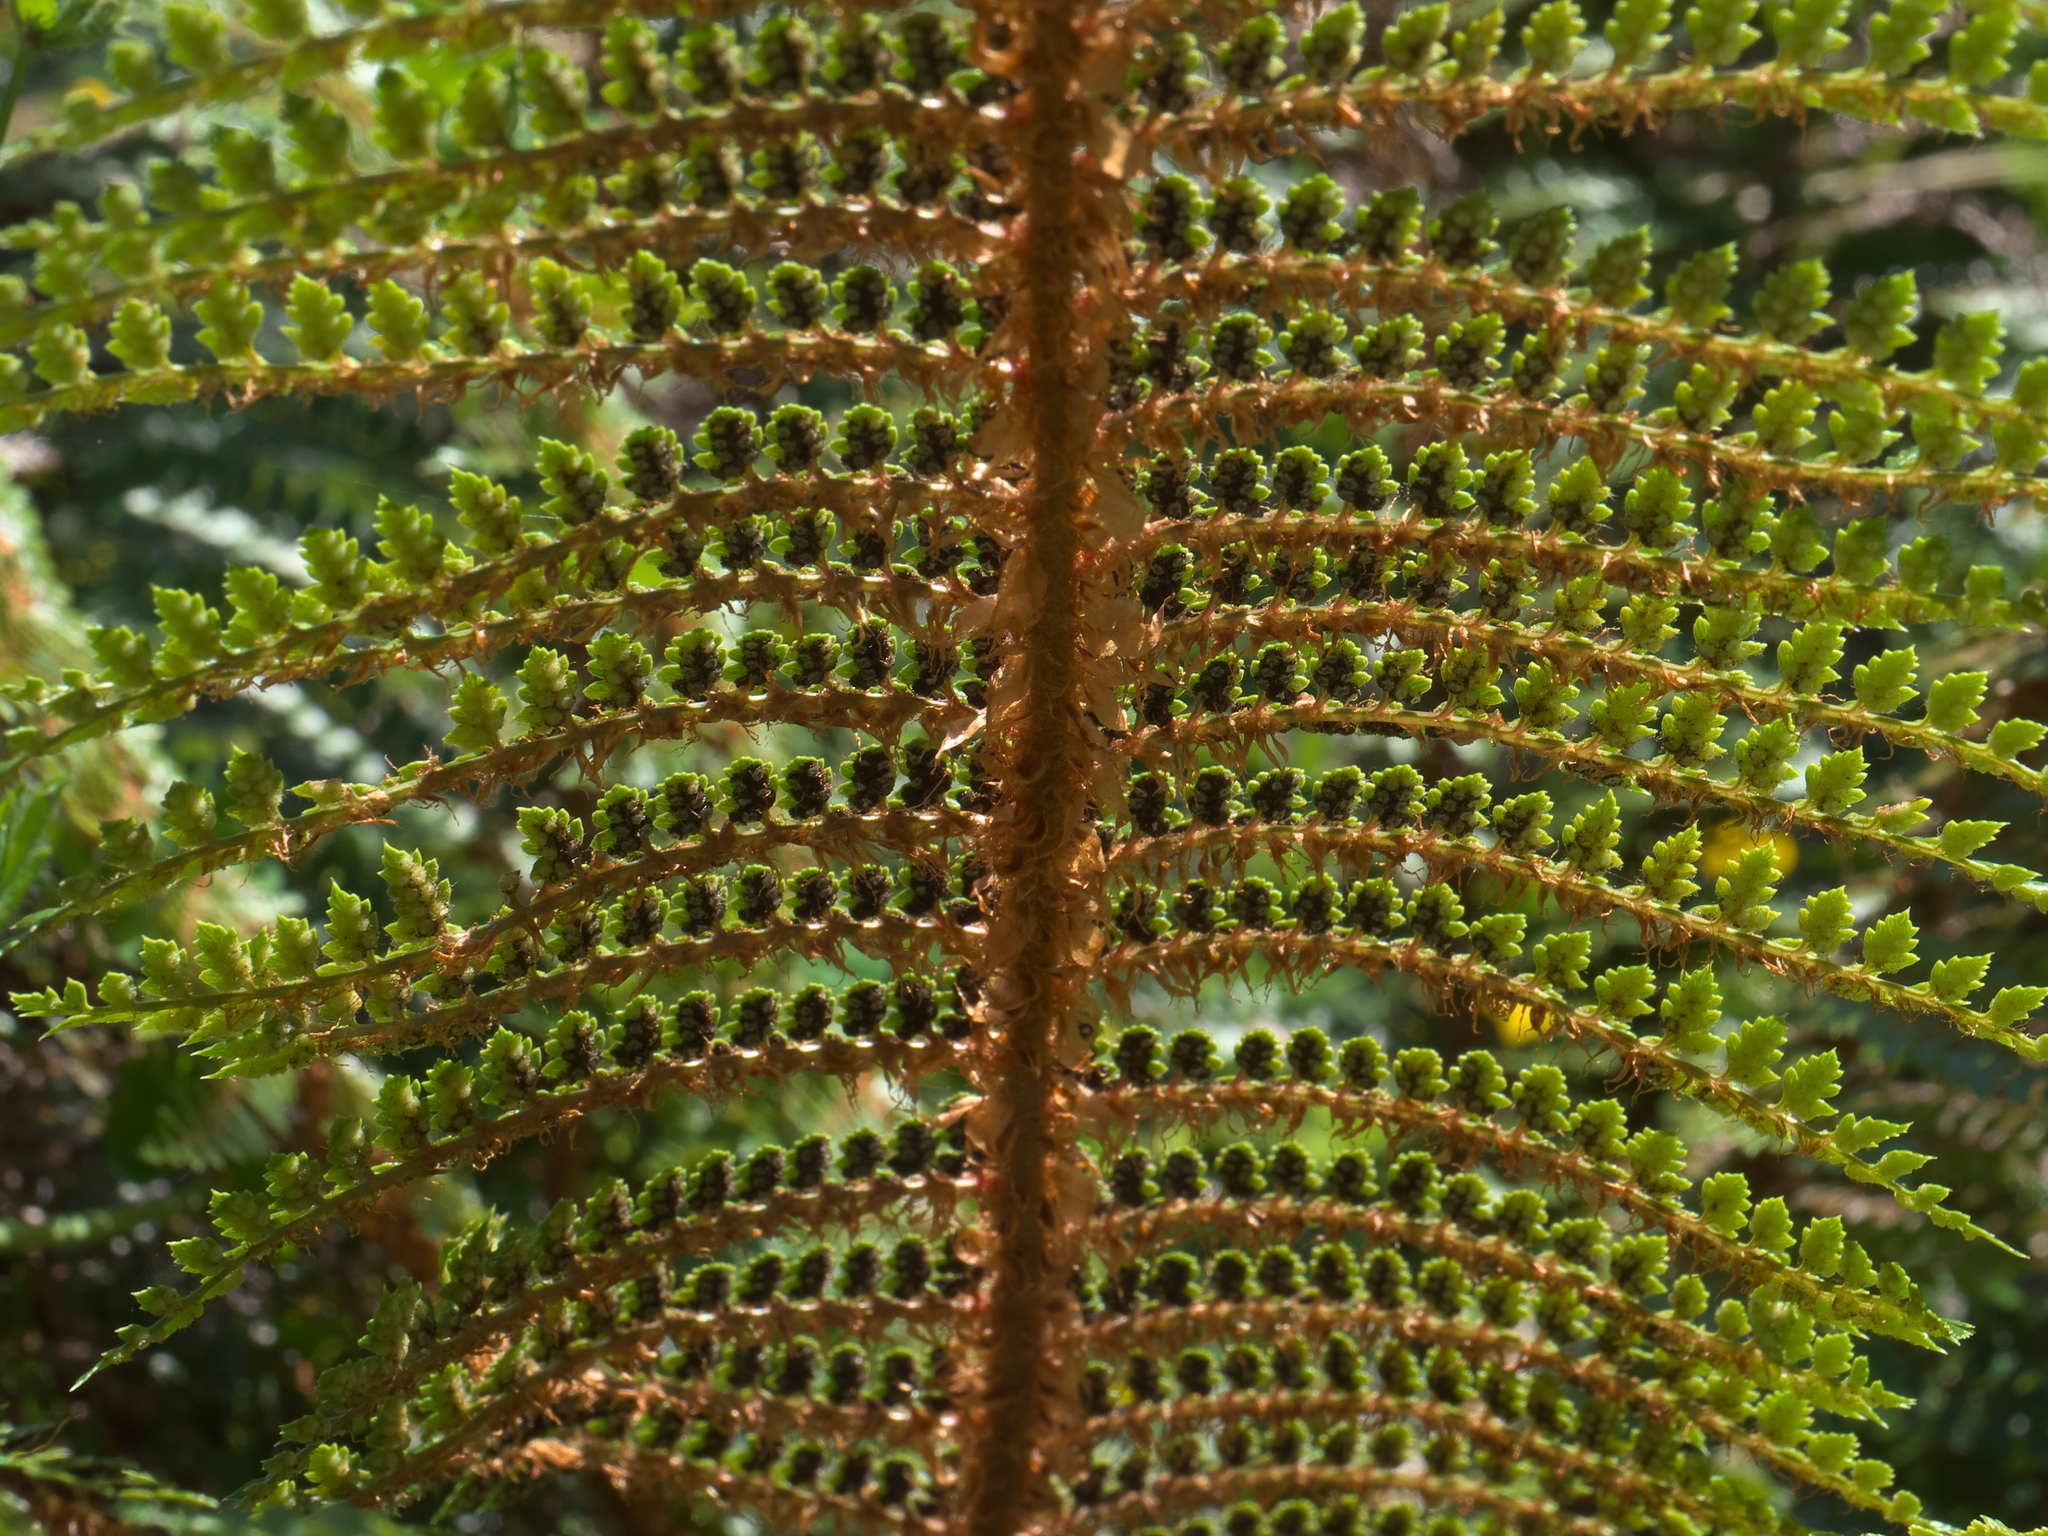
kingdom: Plantae
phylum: Tracheophyta
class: Polypodiopsida
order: Polypodiales
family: Dryopteridaceae
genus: Polystichum
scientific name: Polystichum vestitum
